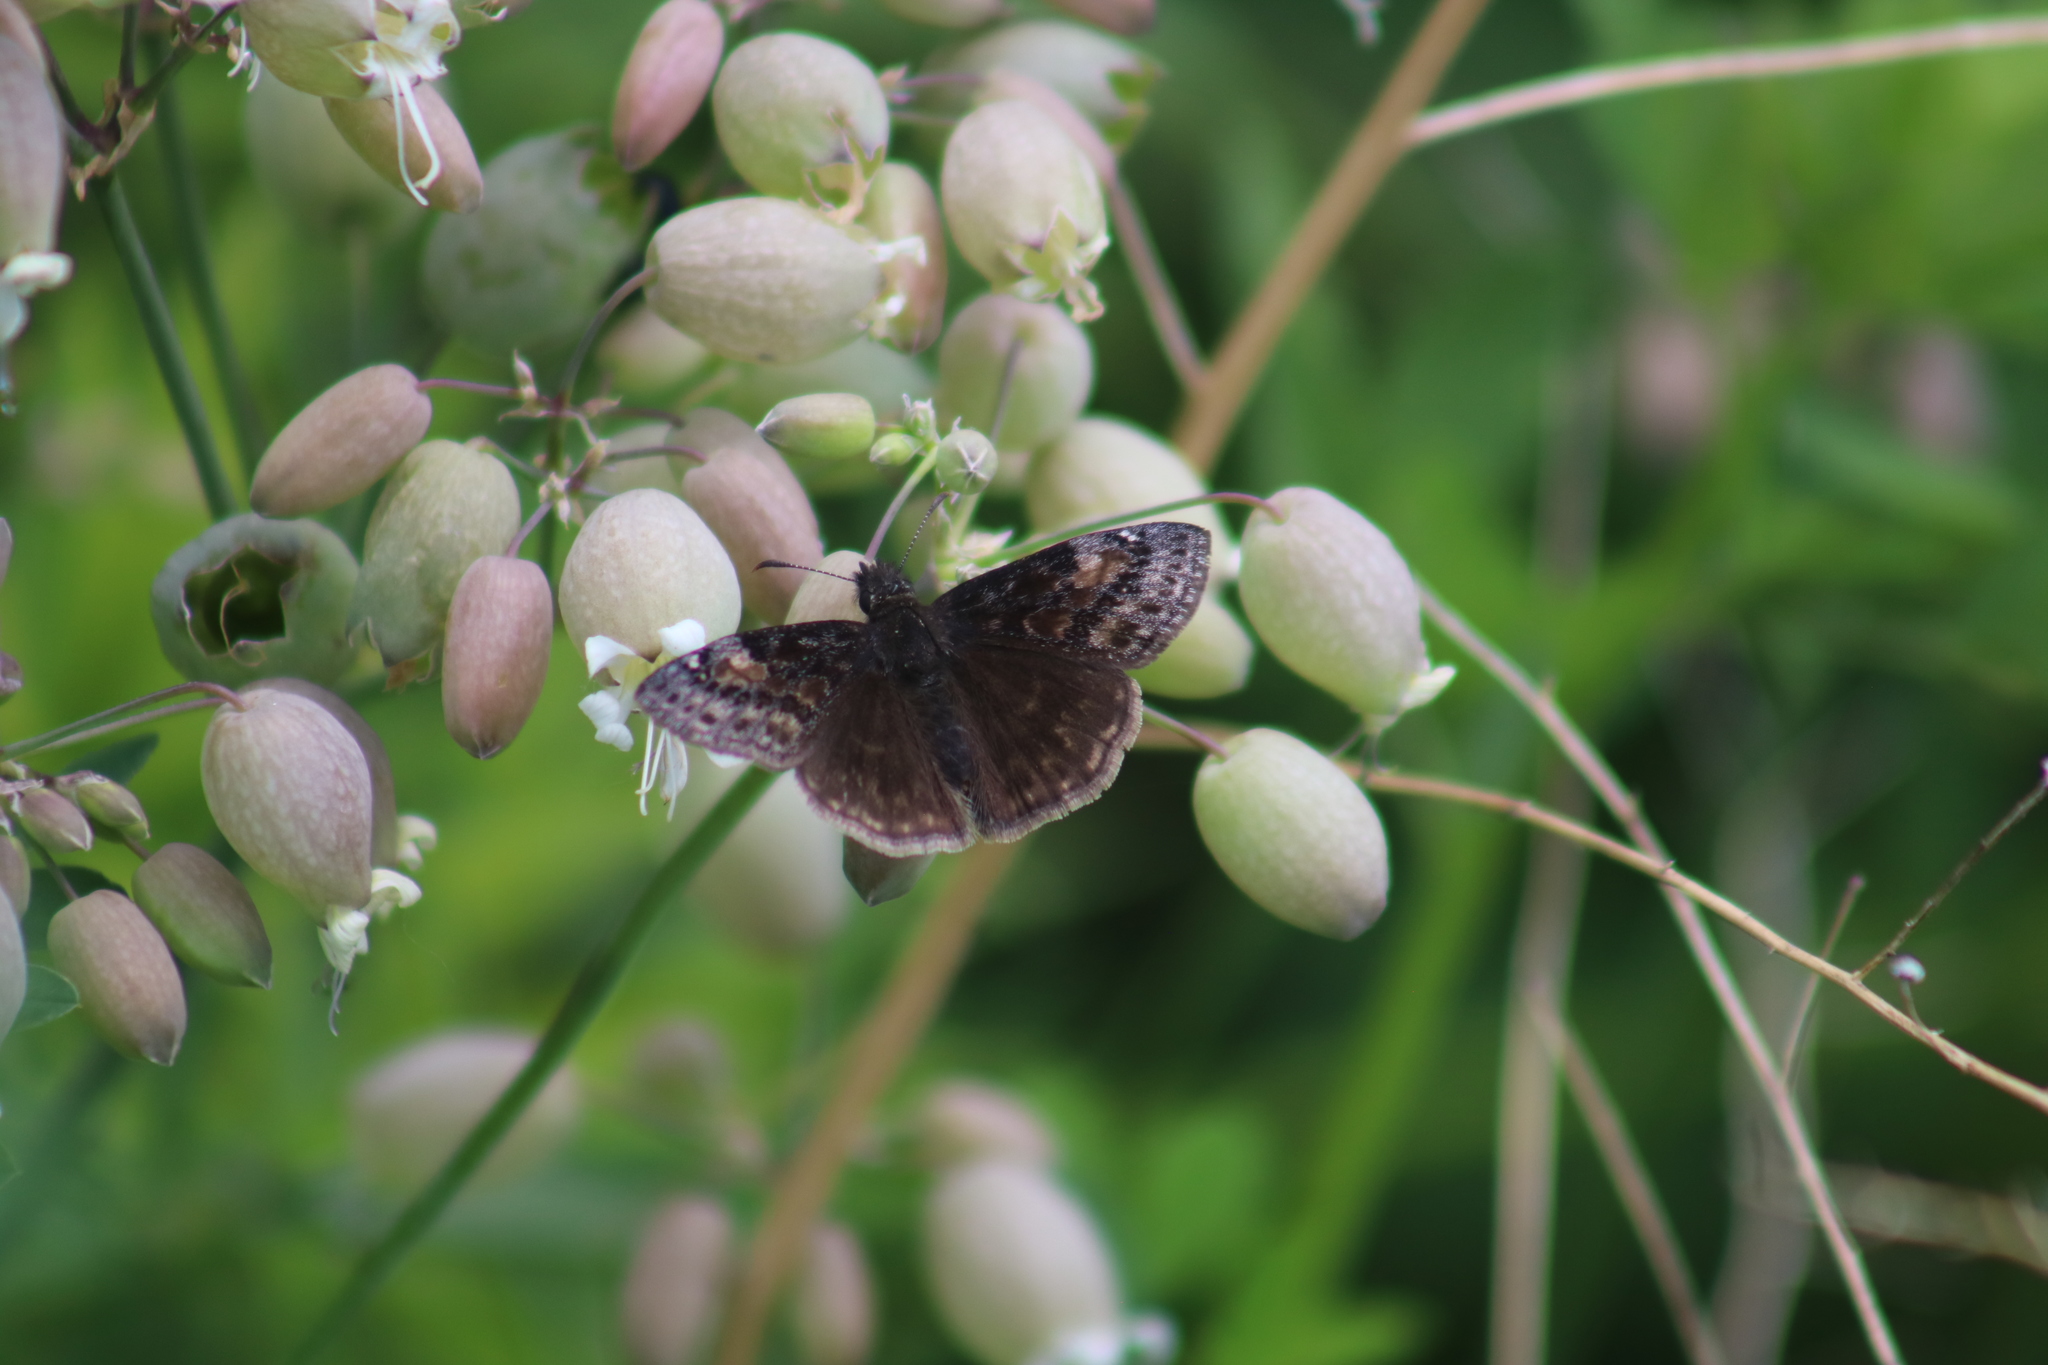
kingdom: Animalia
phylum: Arthropoda
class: Insecta
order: Lepidoptera
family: Hesperiidae
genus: Erynnis
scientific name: Erynnis baptisiae
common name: Wild indigo duskywing
